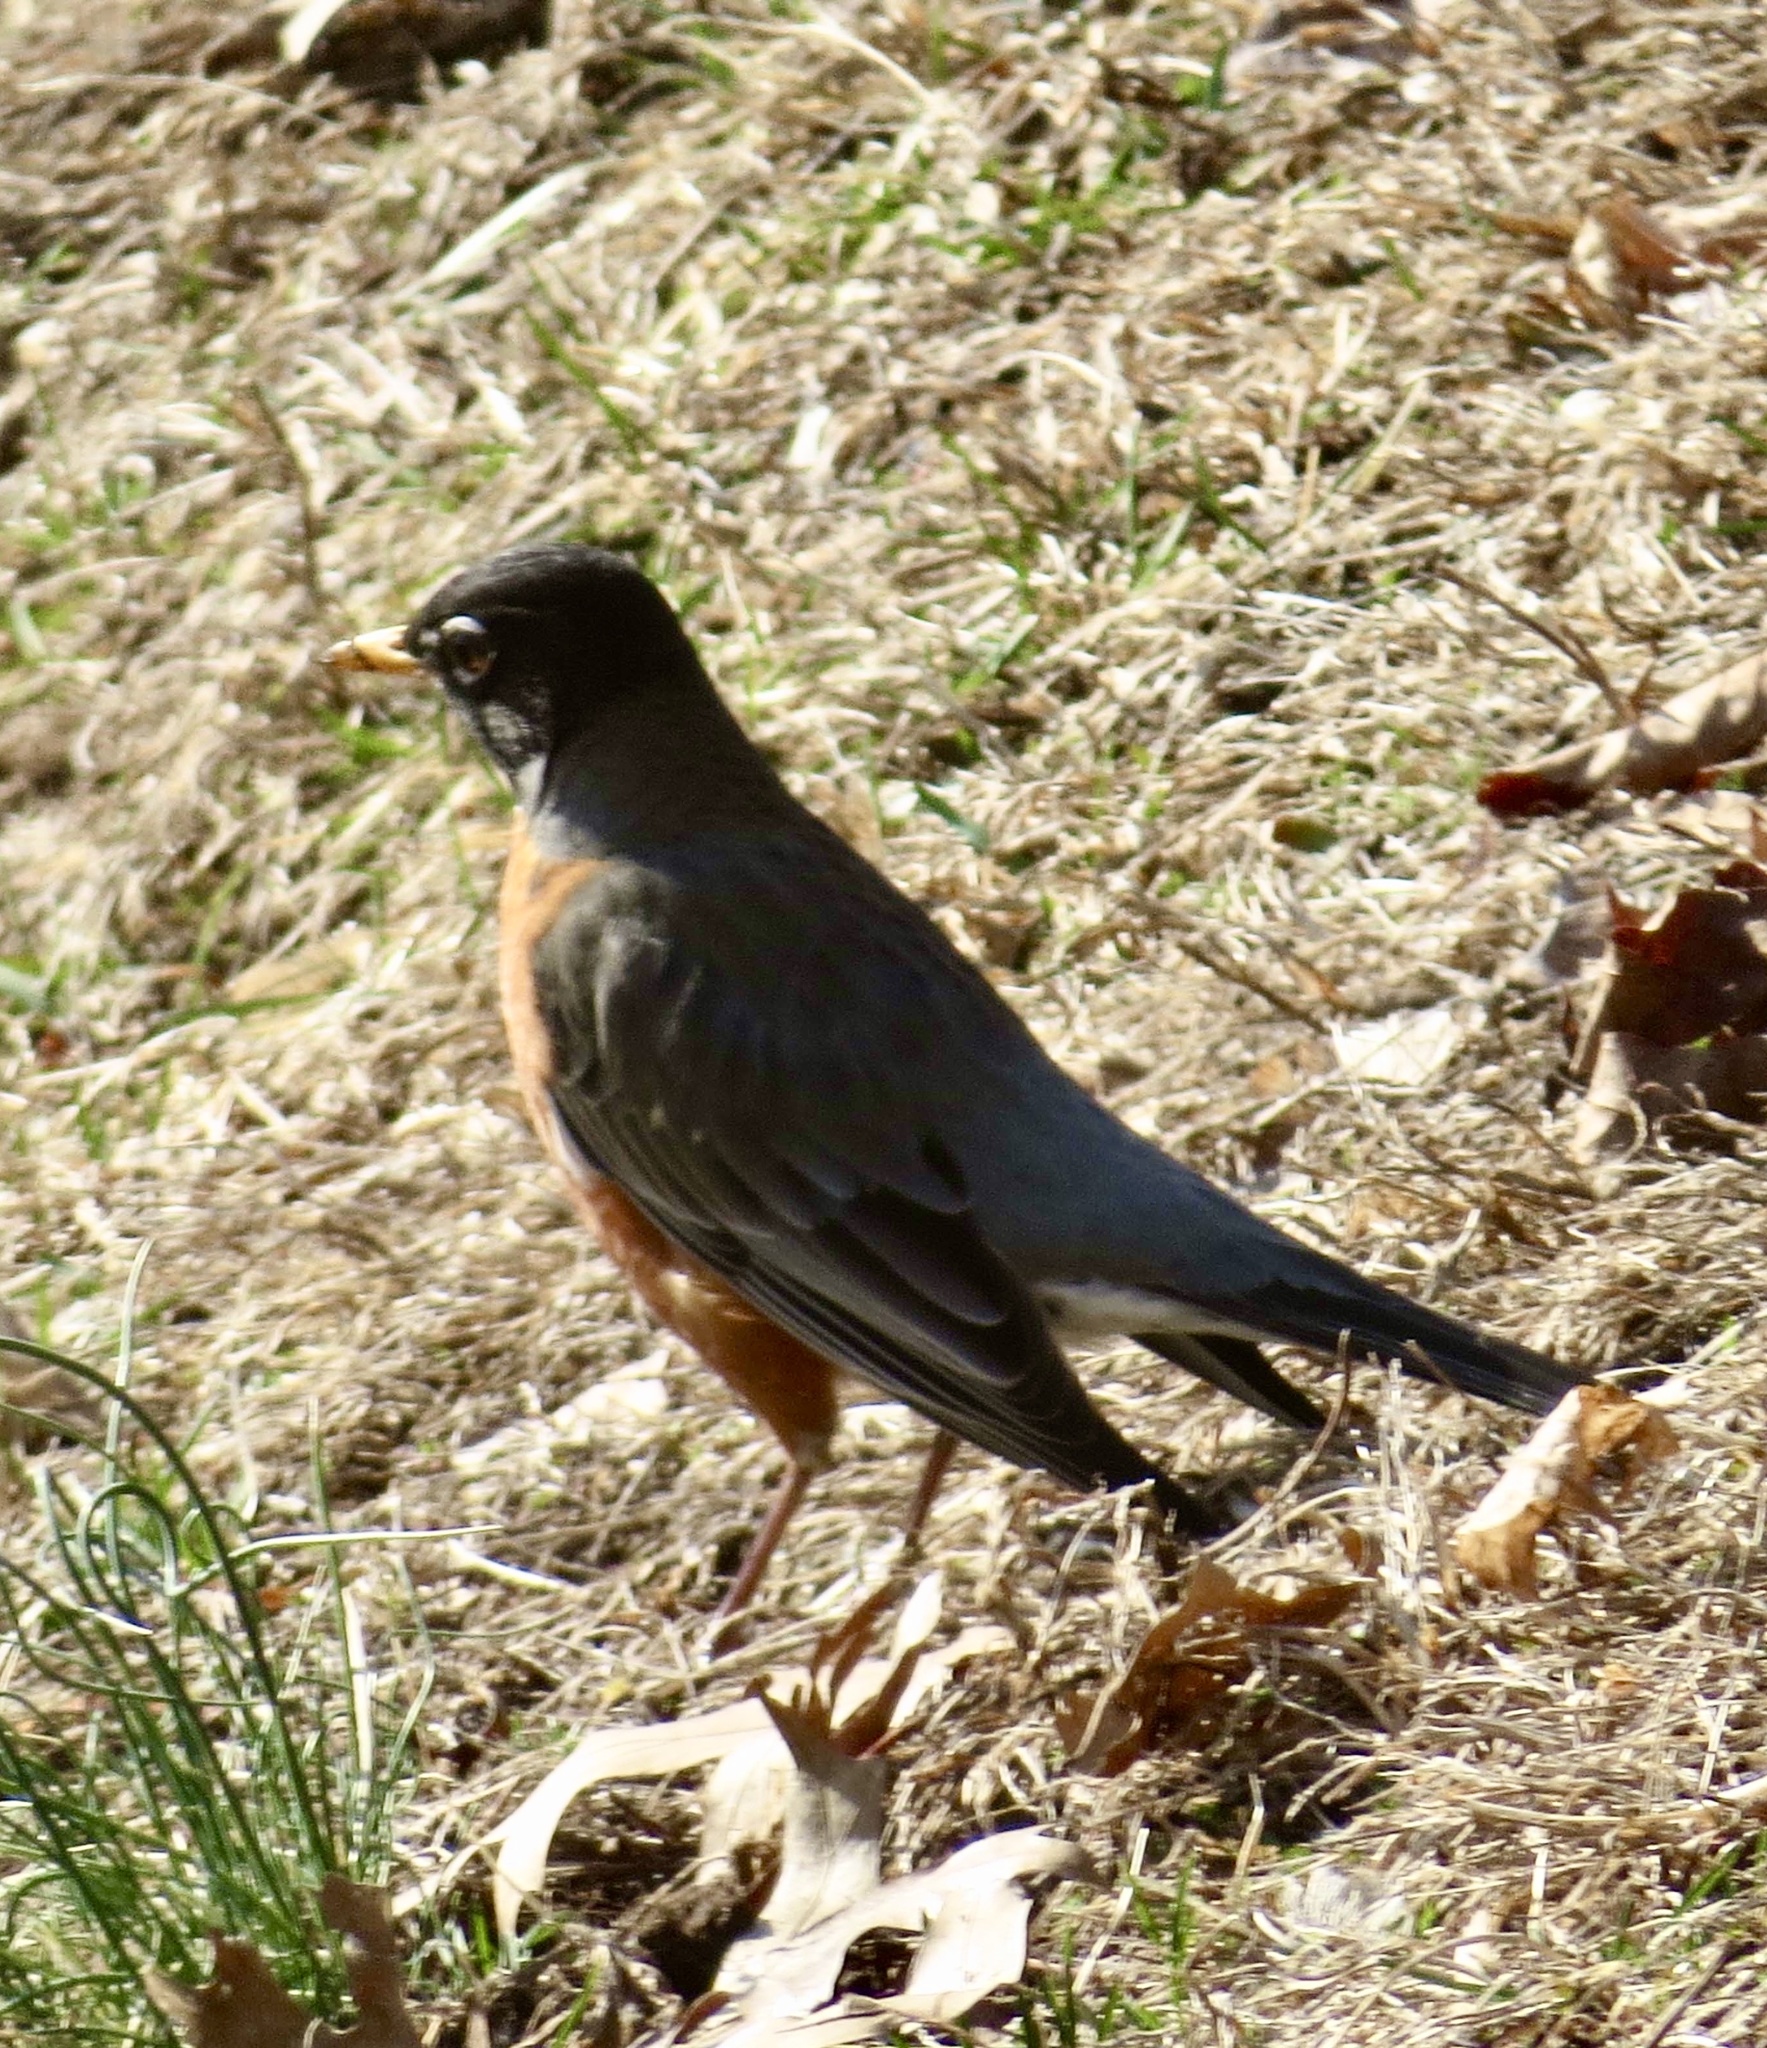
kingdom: Animalia
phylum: Chordata
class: Aves
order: Passeriformes
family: Turdidae
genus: Turdus
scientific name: Turdus migratorius
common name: American robin
